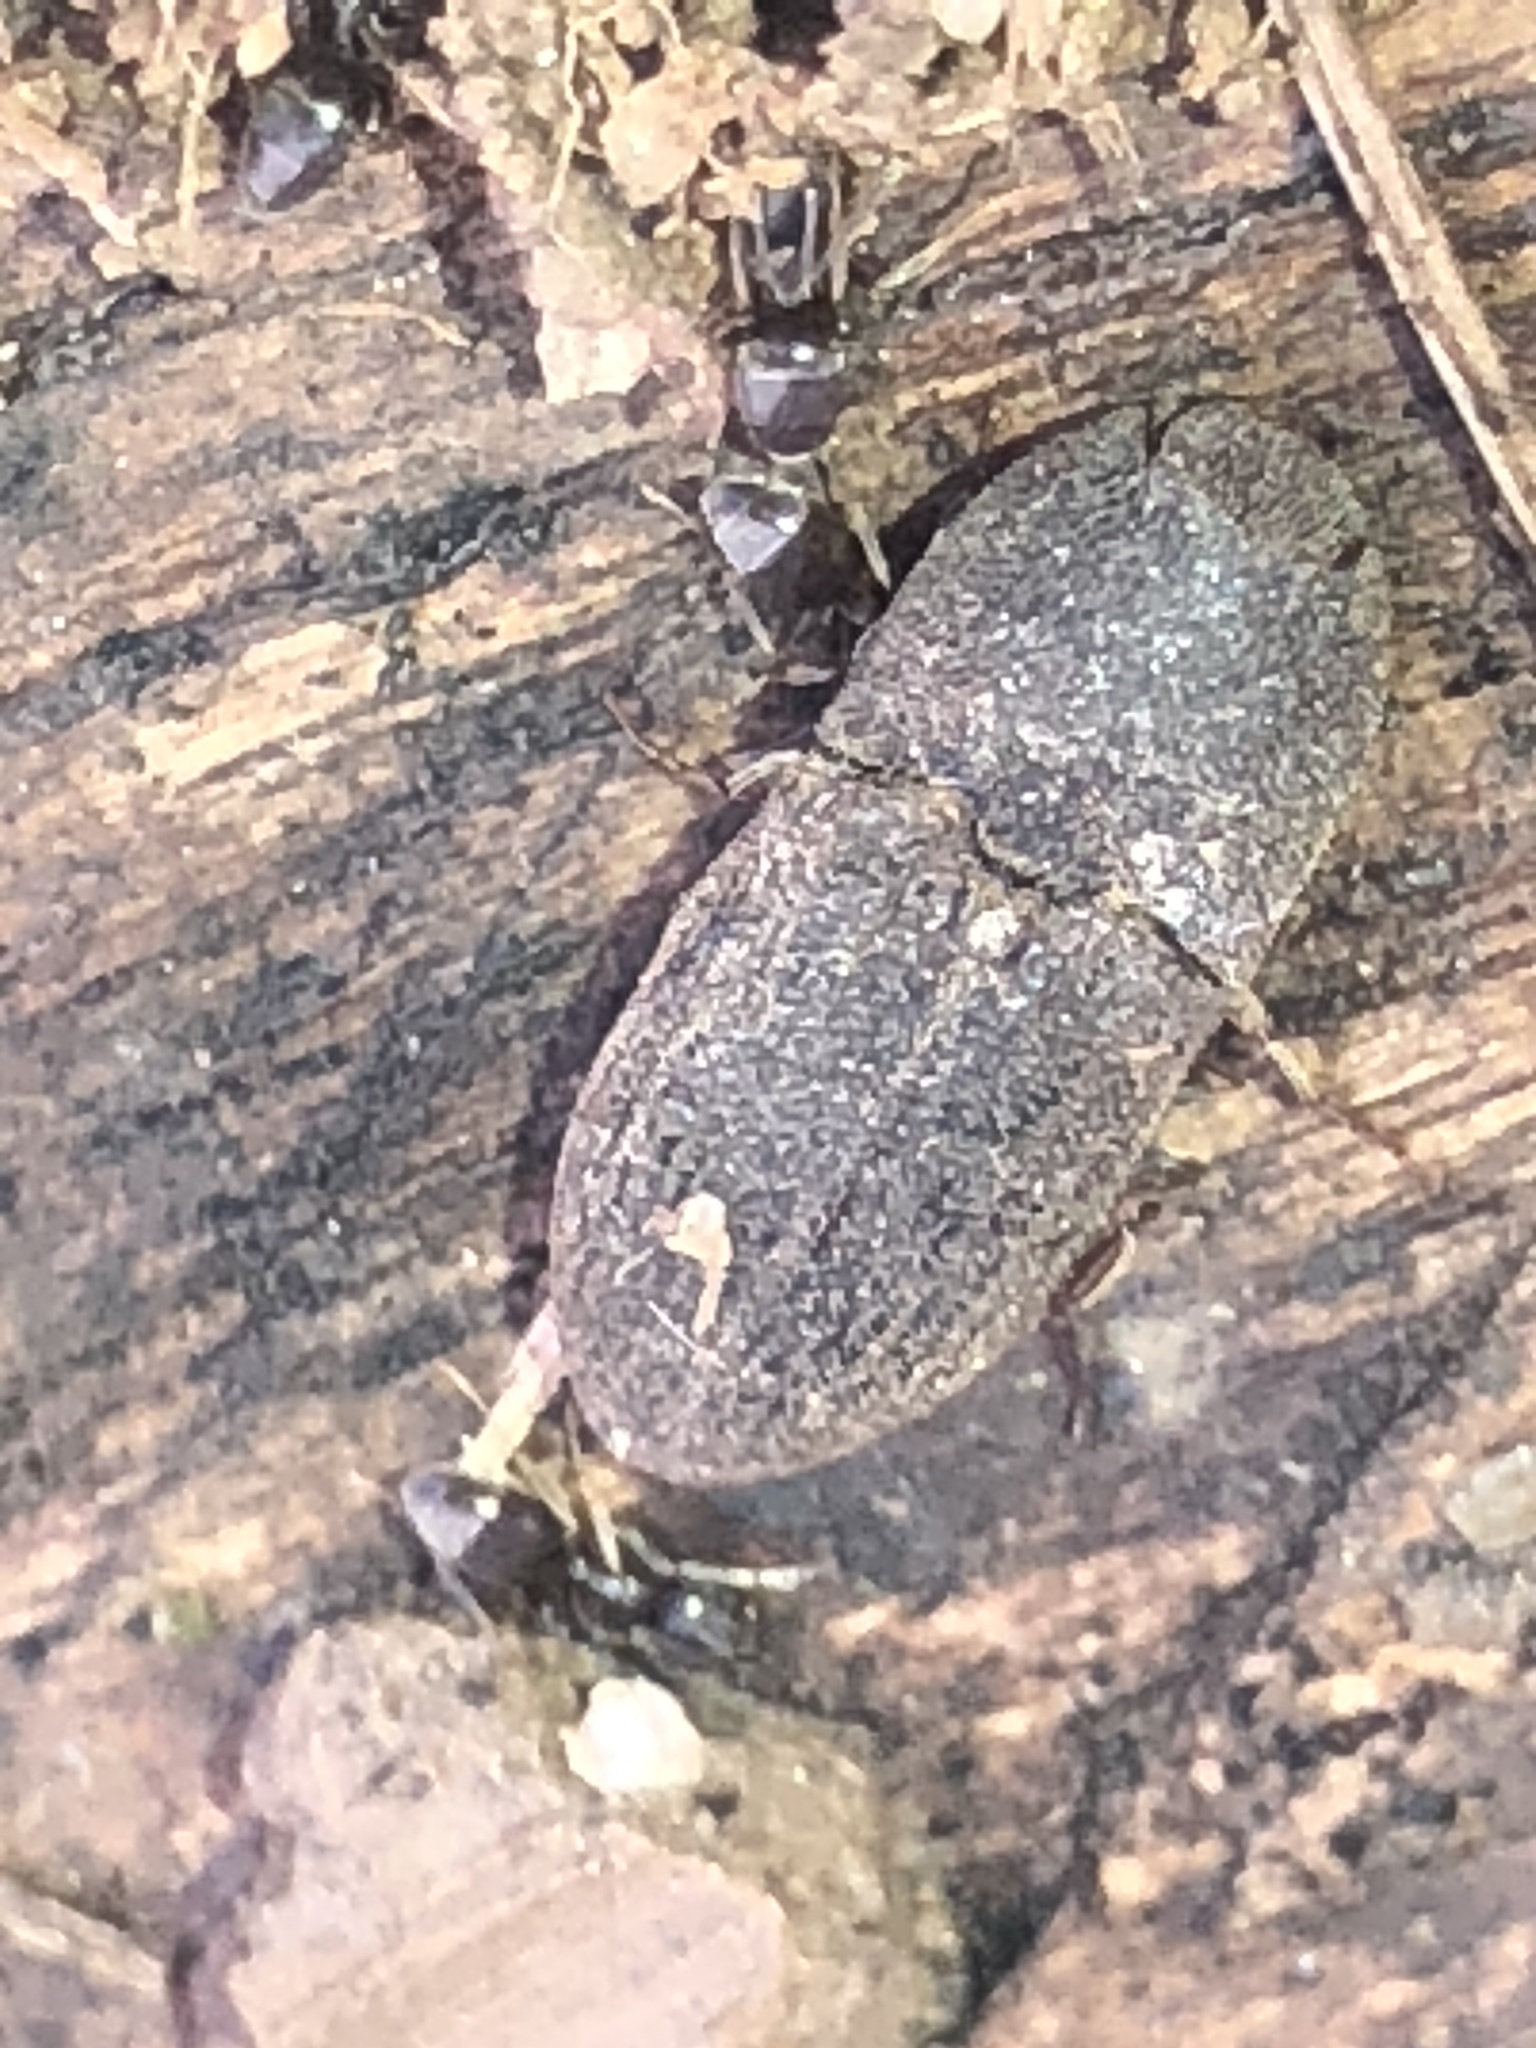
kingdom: Animalia
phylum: Arthropoda
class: Insecta
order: Coleoptera
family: Elateridae
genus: Agrypnus
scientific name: Agrypnus rectangularis
